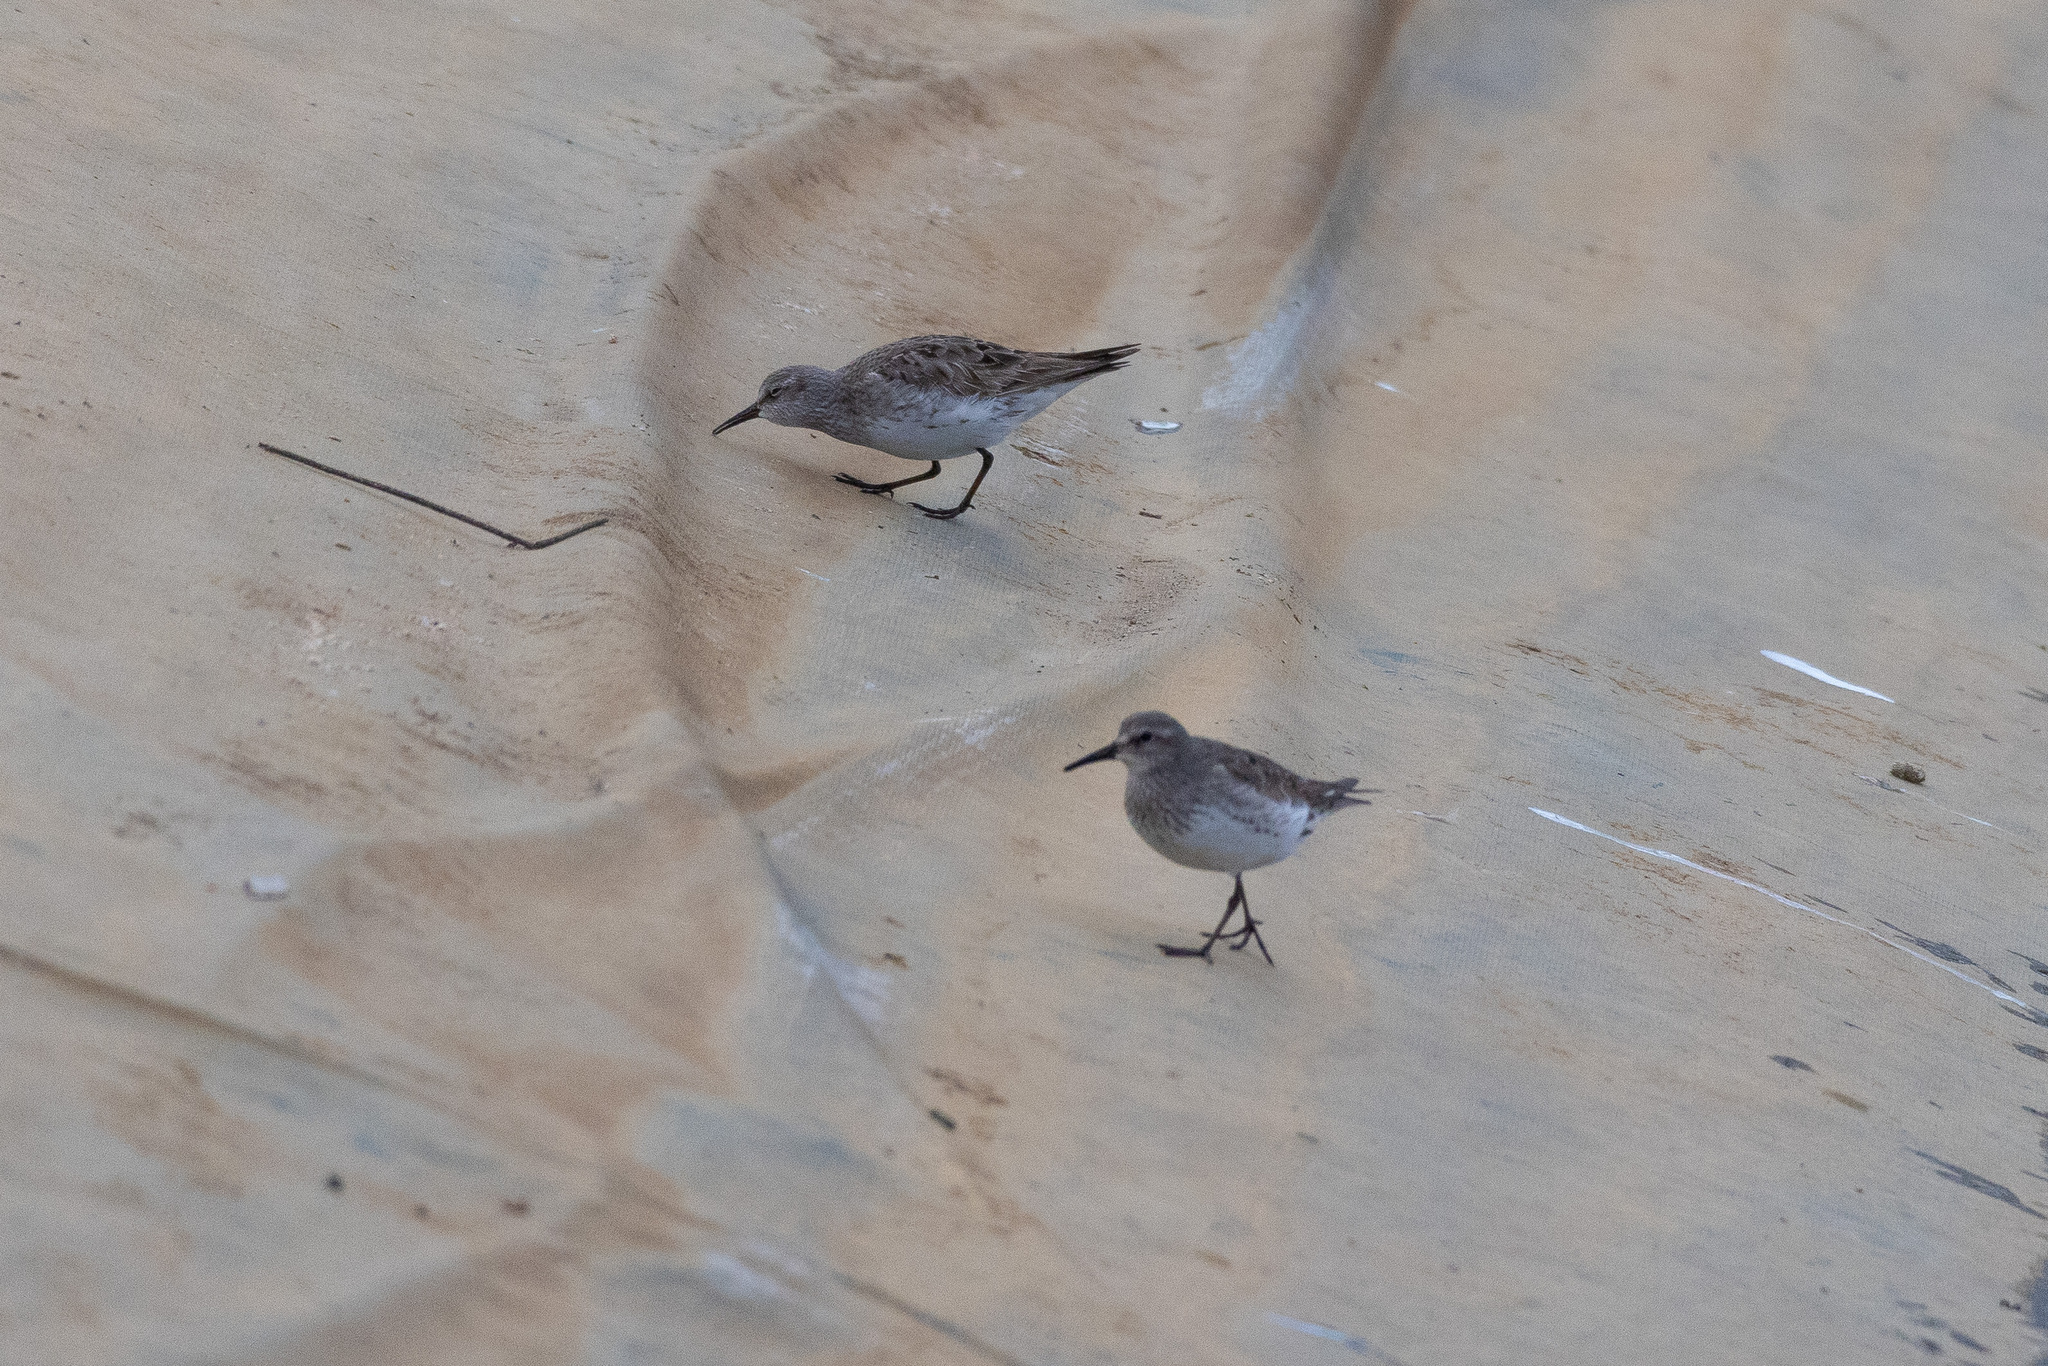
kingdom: Animalia
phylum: Chordata
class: Aves
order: Charadriiformes
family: Scolopacidae
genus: Calidris
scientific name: Calidris fuscicollis
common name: White-rumped sandpiper
